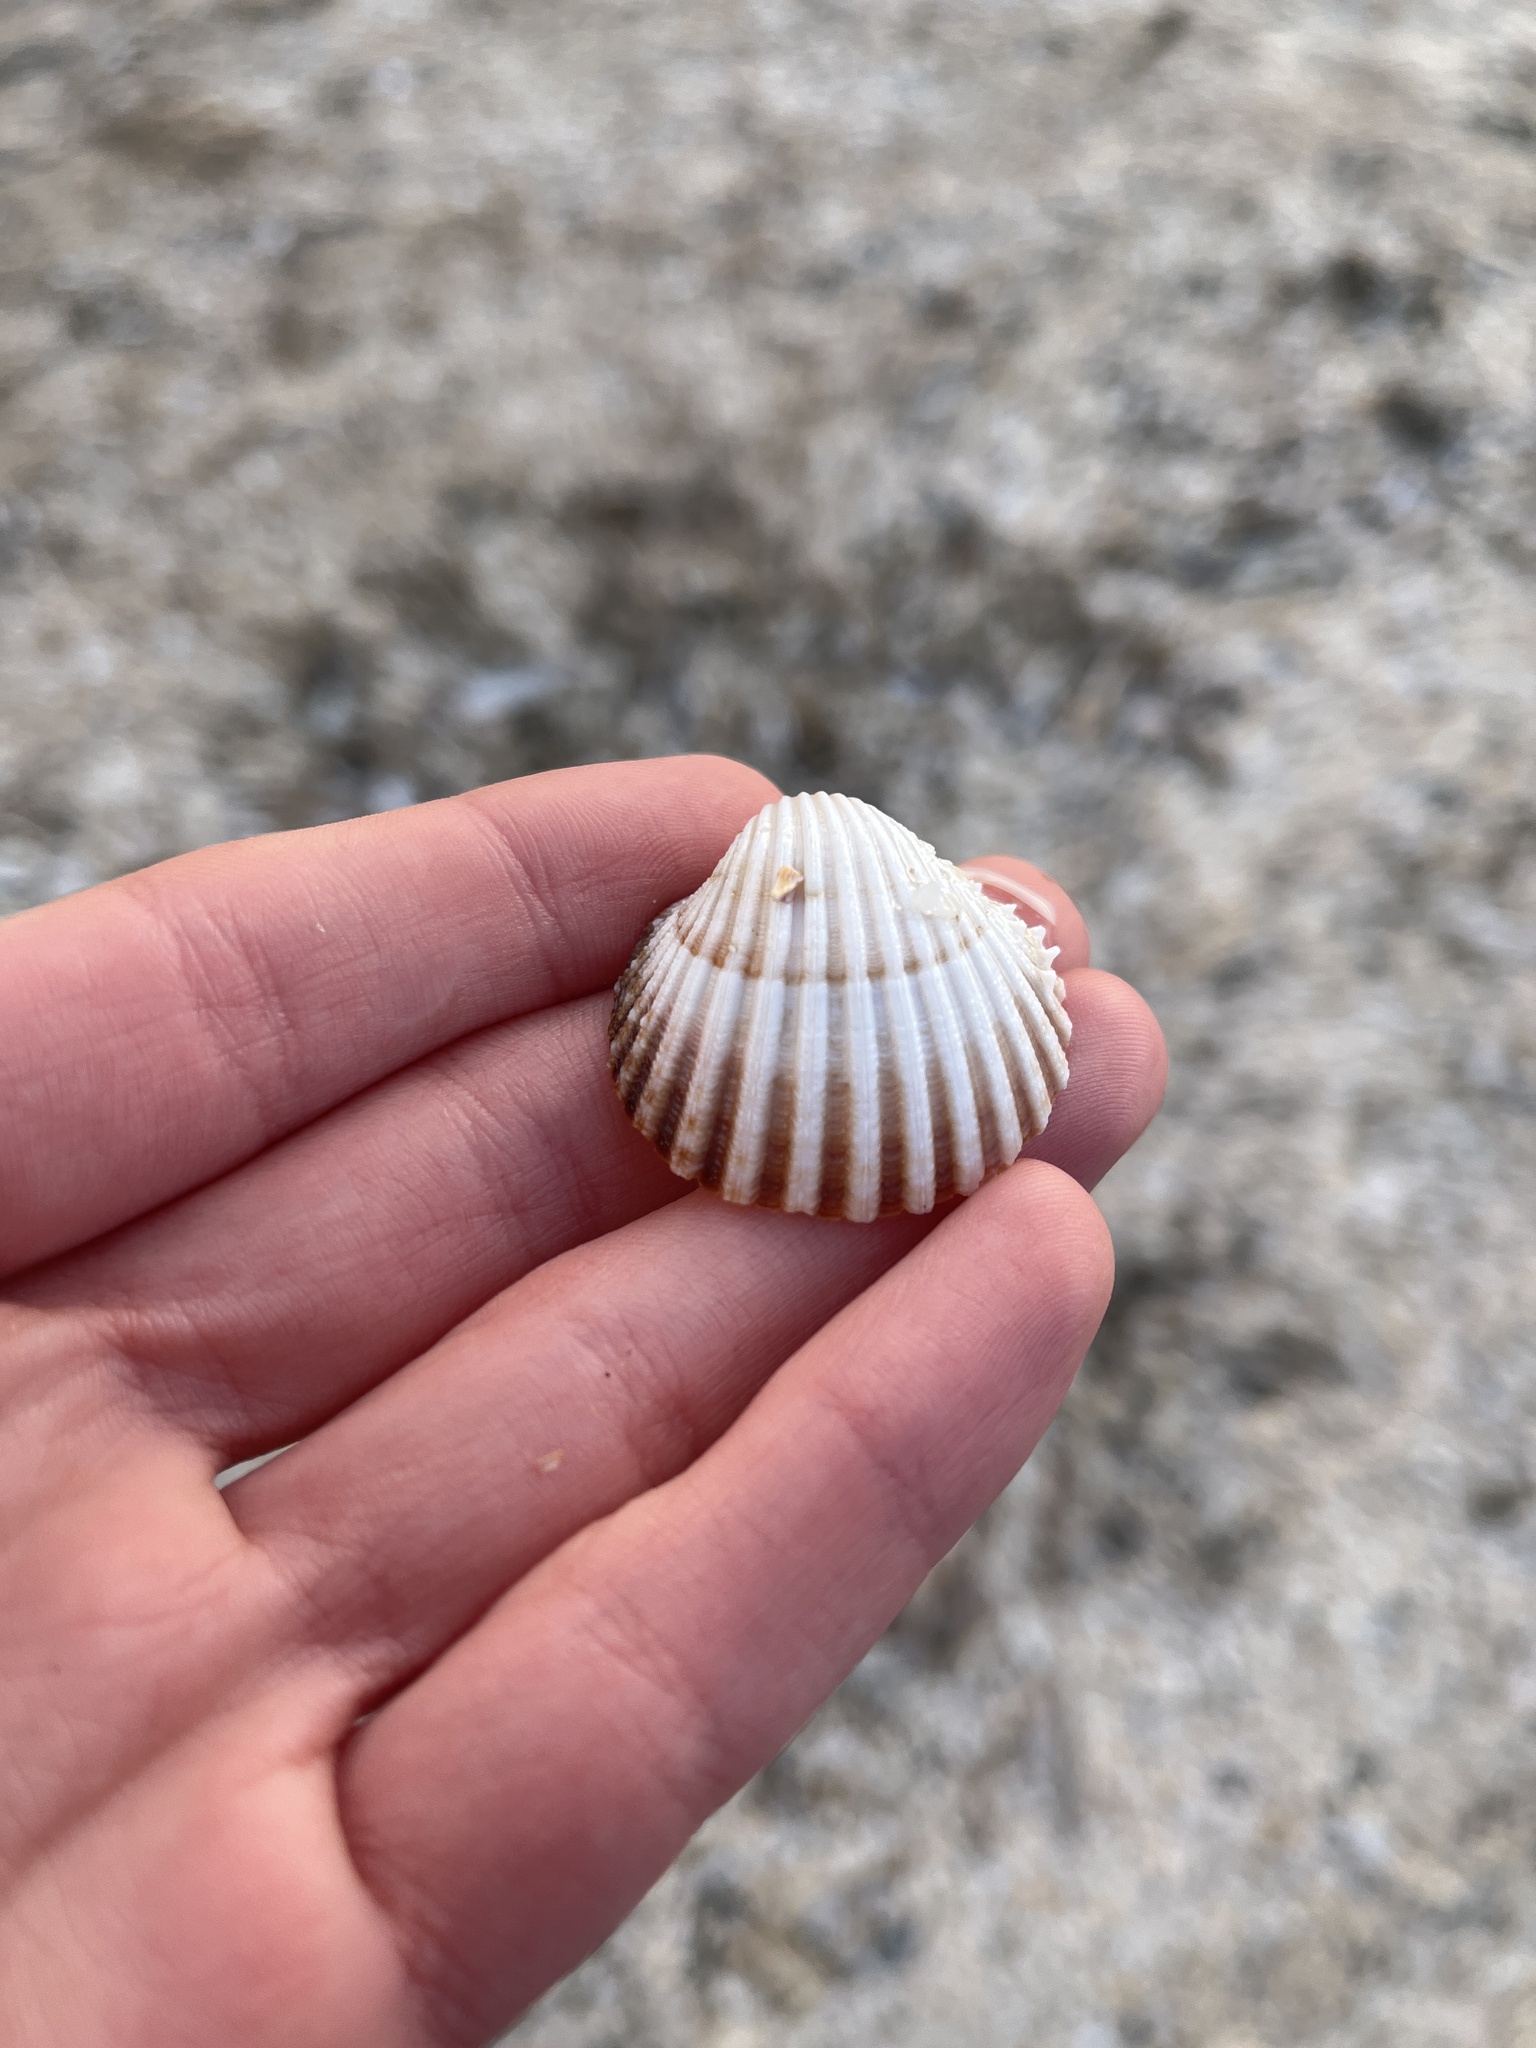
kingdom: Animalia
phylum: Mollusca
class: Bivalvia
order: Cardiida
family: Cardiidae
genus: Acanthocardia
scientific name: Acanthocardia echinata
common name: Prickly cockle
